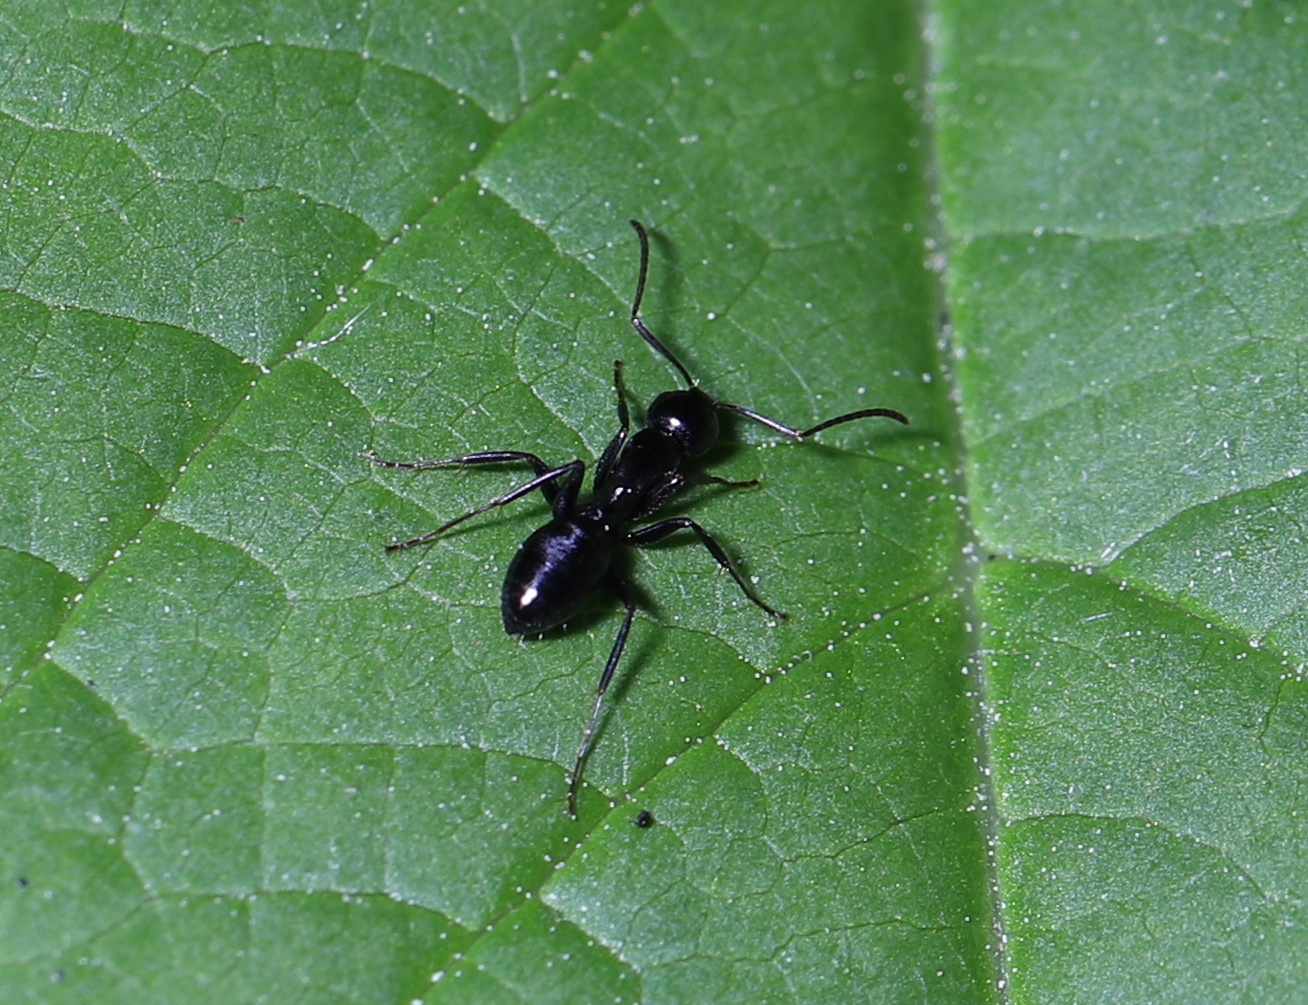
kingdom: Animalia
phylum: Arthropoda
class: Insecta
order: Hymenoptera
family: Formicidae
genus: Camponotus
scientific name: Camponotus nearcticus
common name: Smaller carpenter ant
